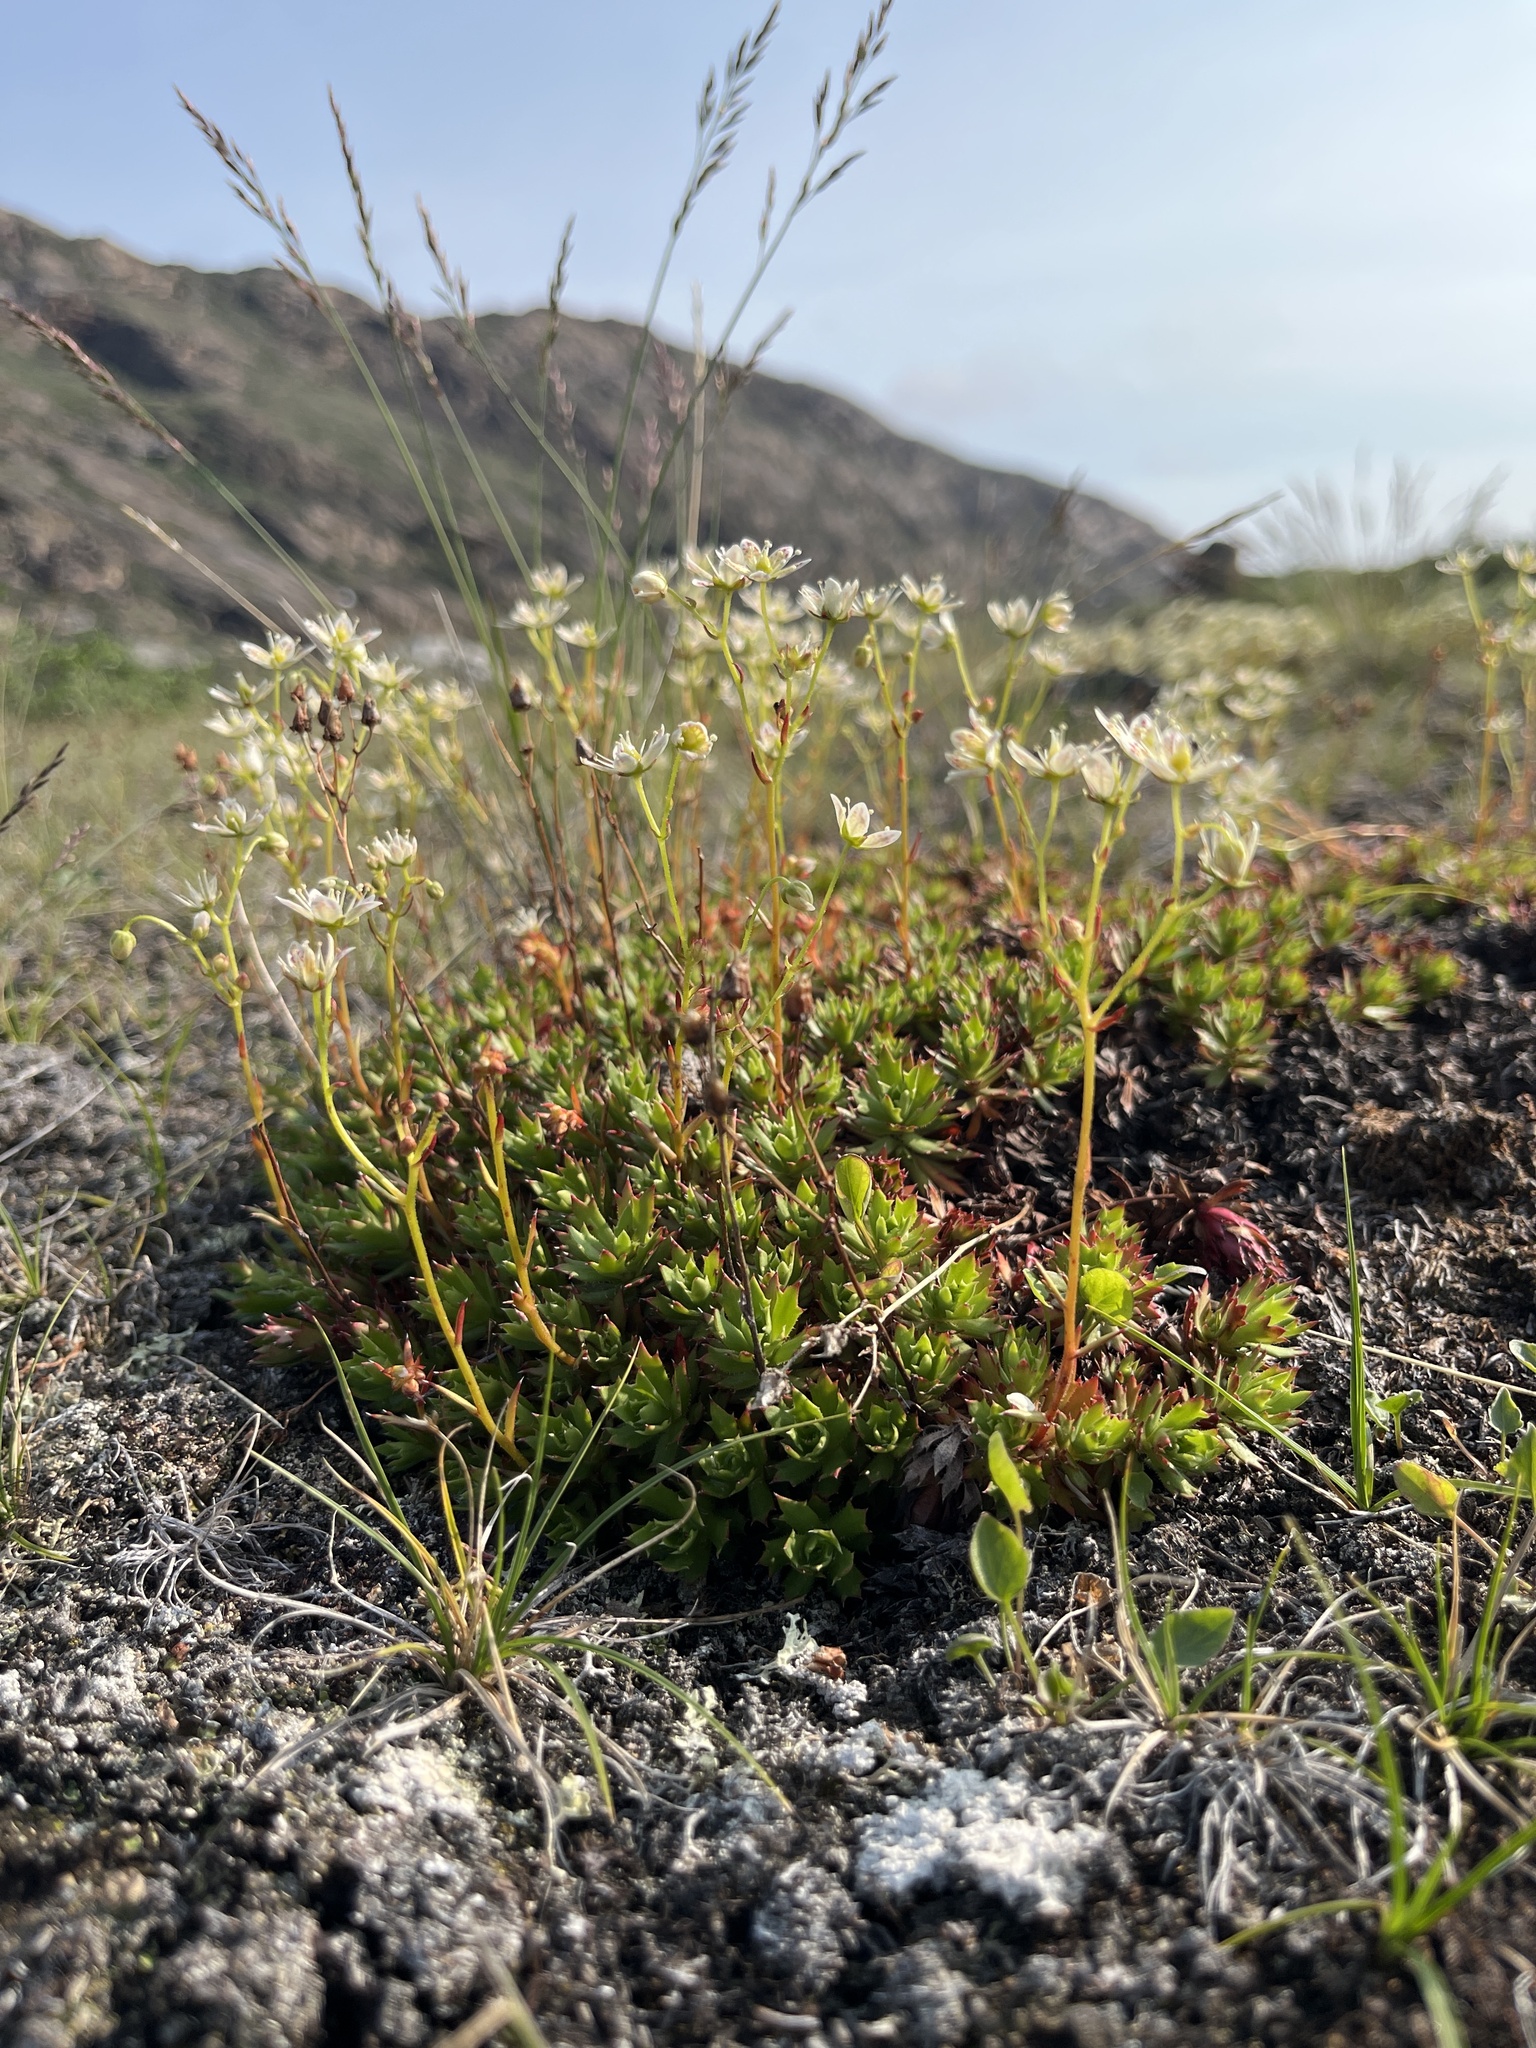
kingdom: Plantae
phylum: Tracheophyta
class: Magnoliopsida
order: Saxifragales
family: Saxifragaceae
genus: Saxifraga
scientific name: Saxifraga tricuspidata
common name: Prickly saxifrage
